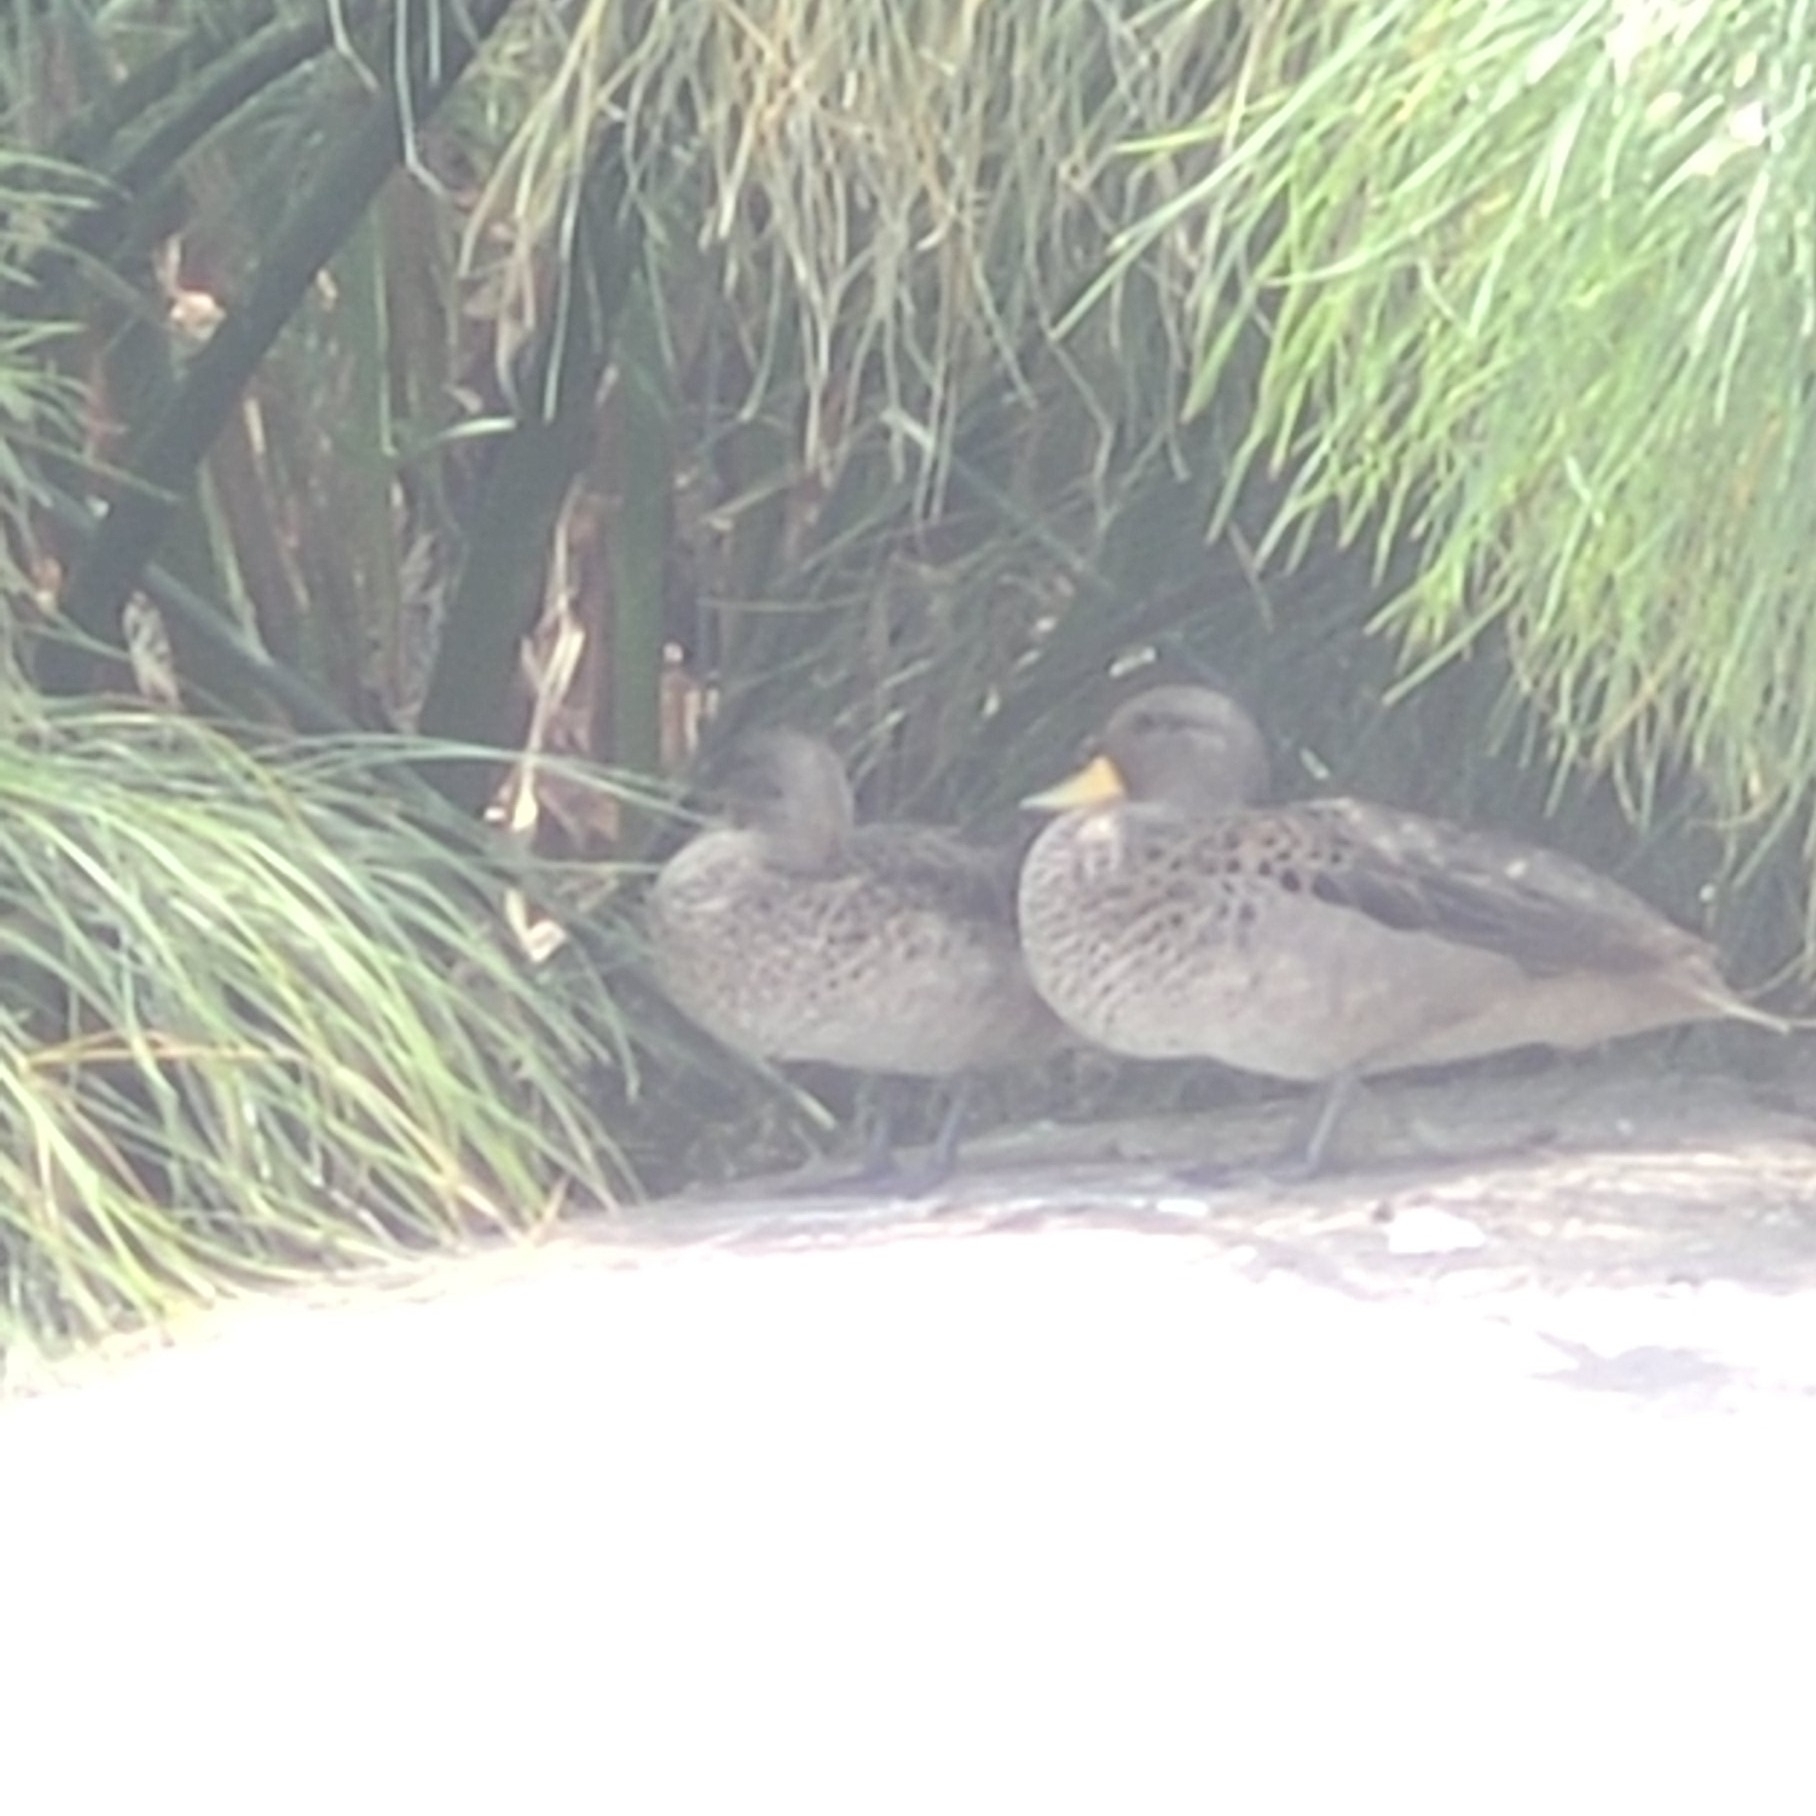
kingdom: Animalia
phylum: Chordata
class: Aves
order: Anseriformes
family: Anatidae
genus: Anas
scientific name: Anas flavirostris
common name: Yellow-billed teal
